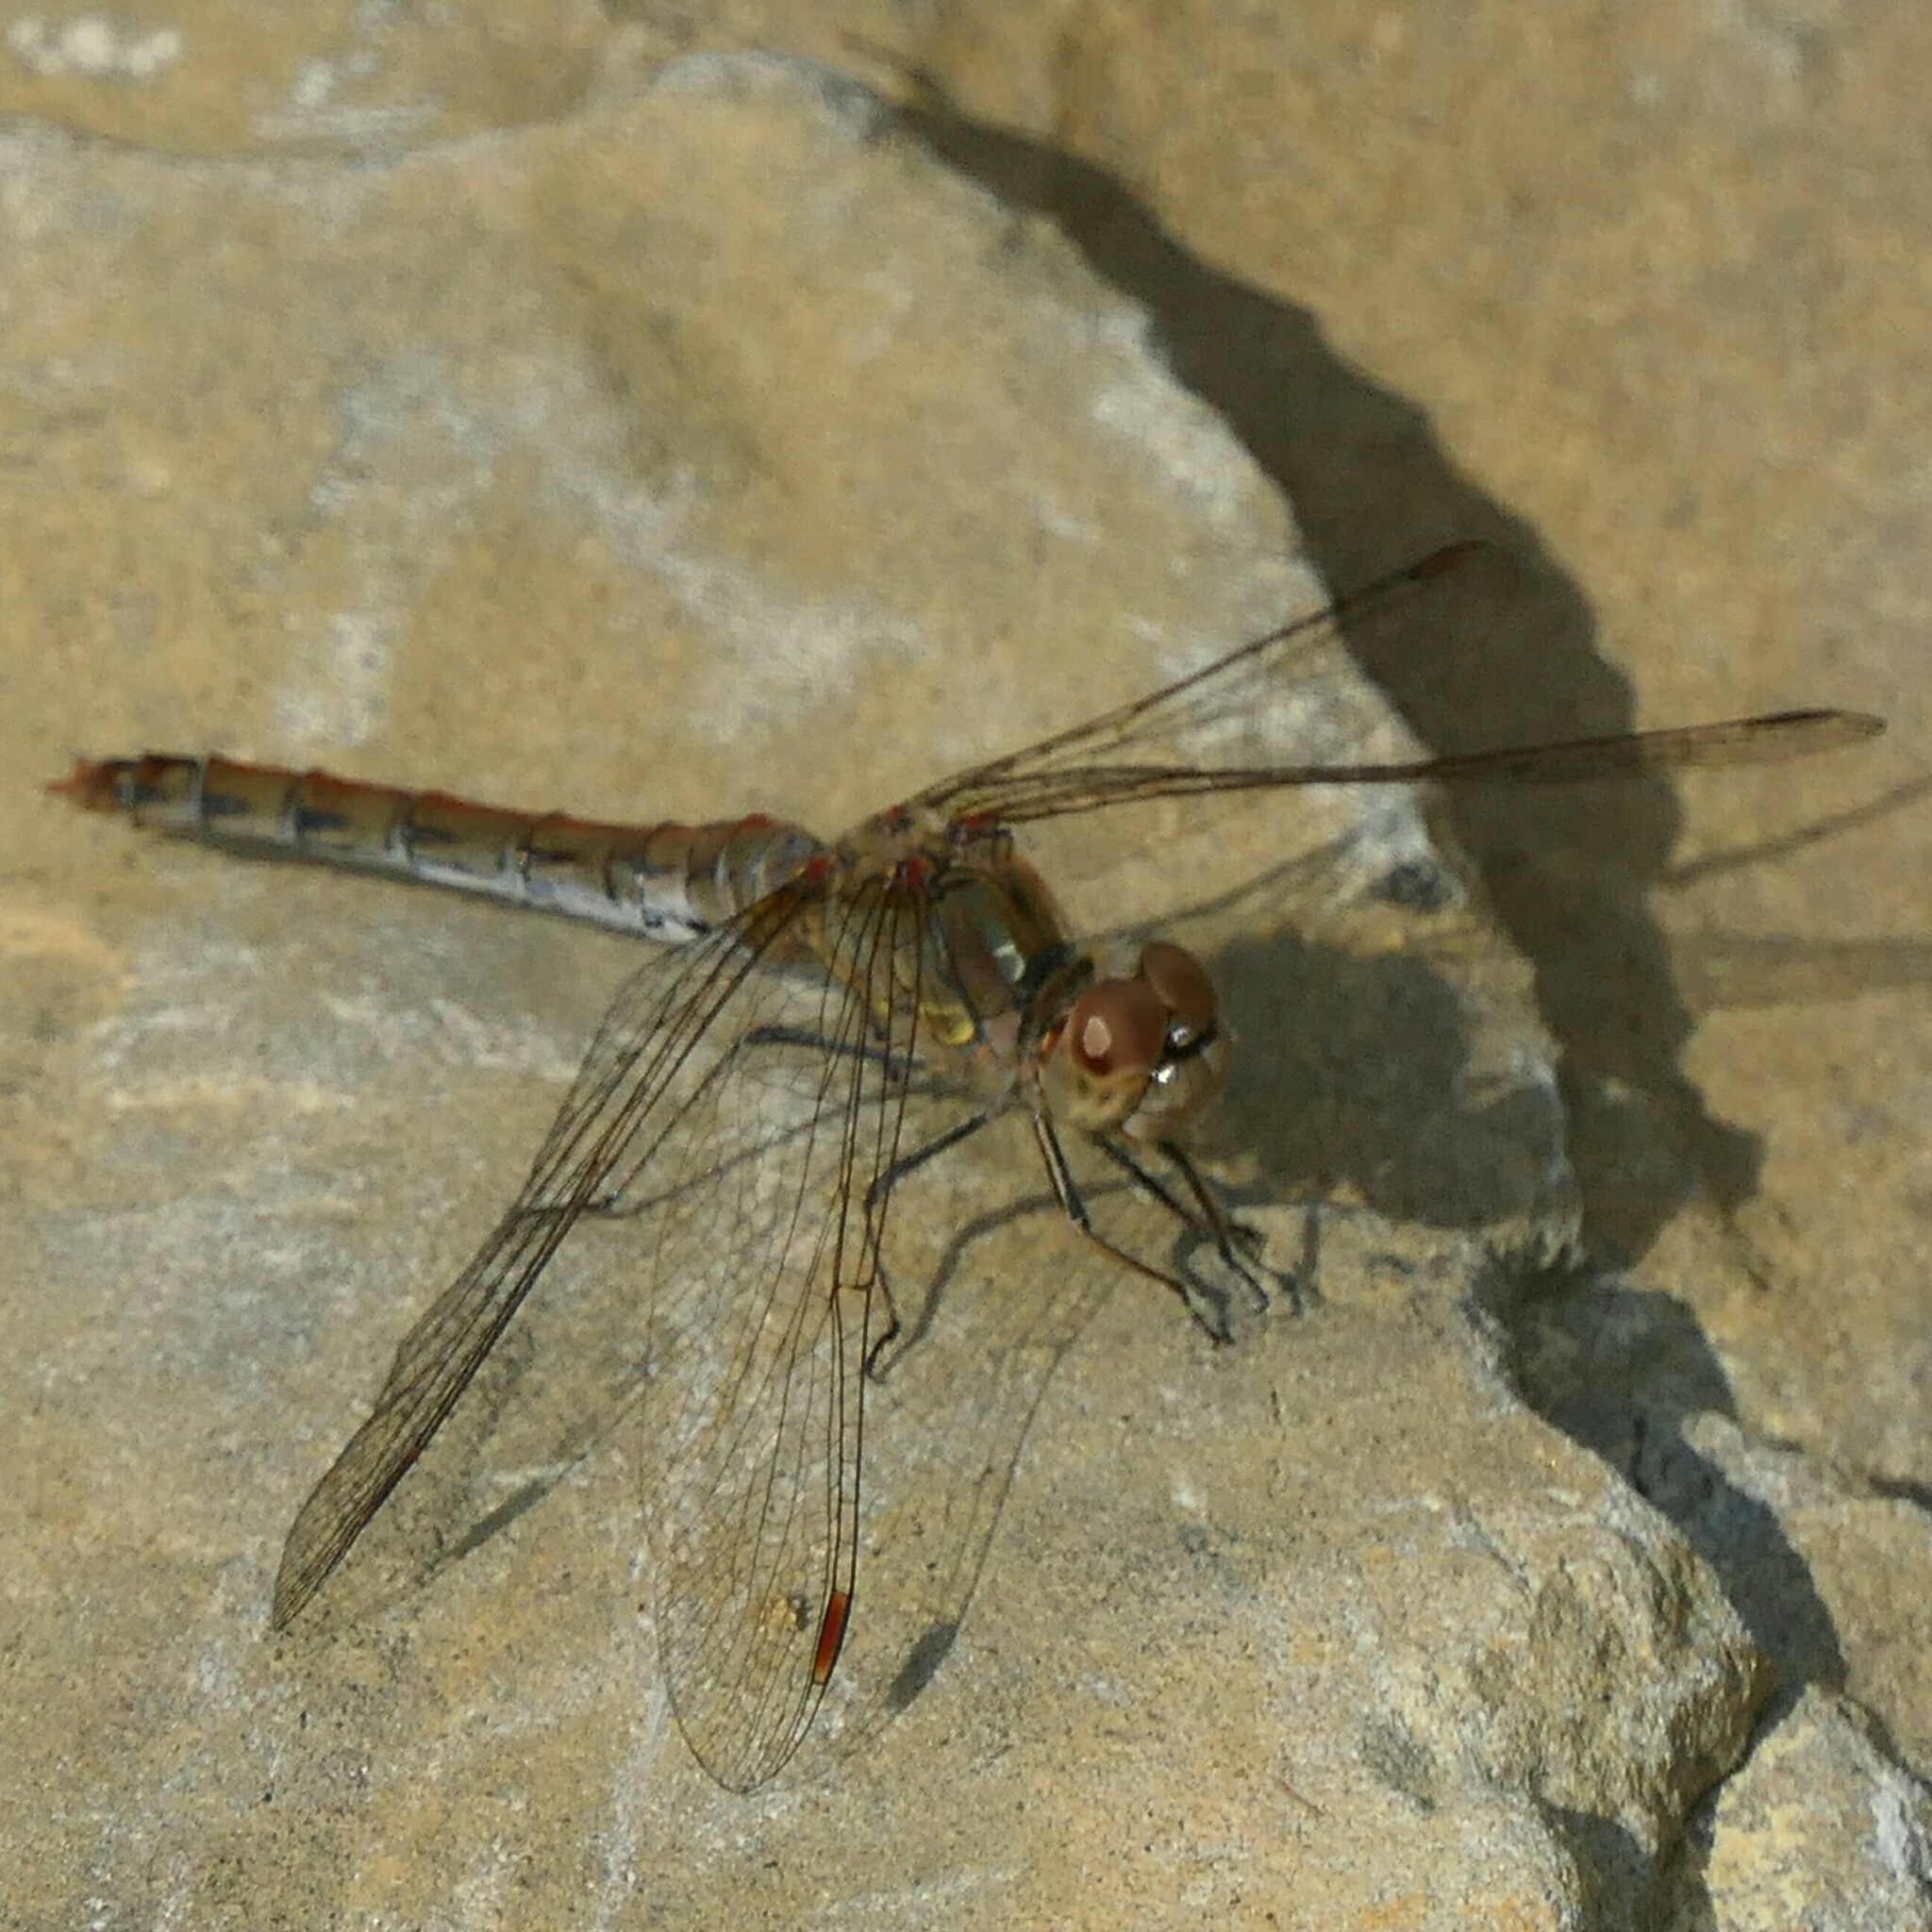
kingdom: Animalia
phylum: Arthropoda
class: Insecta
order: Odonata
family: Libellulidae
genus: Sympetrum
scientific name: Sympetrum striolatum
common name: Common darter
